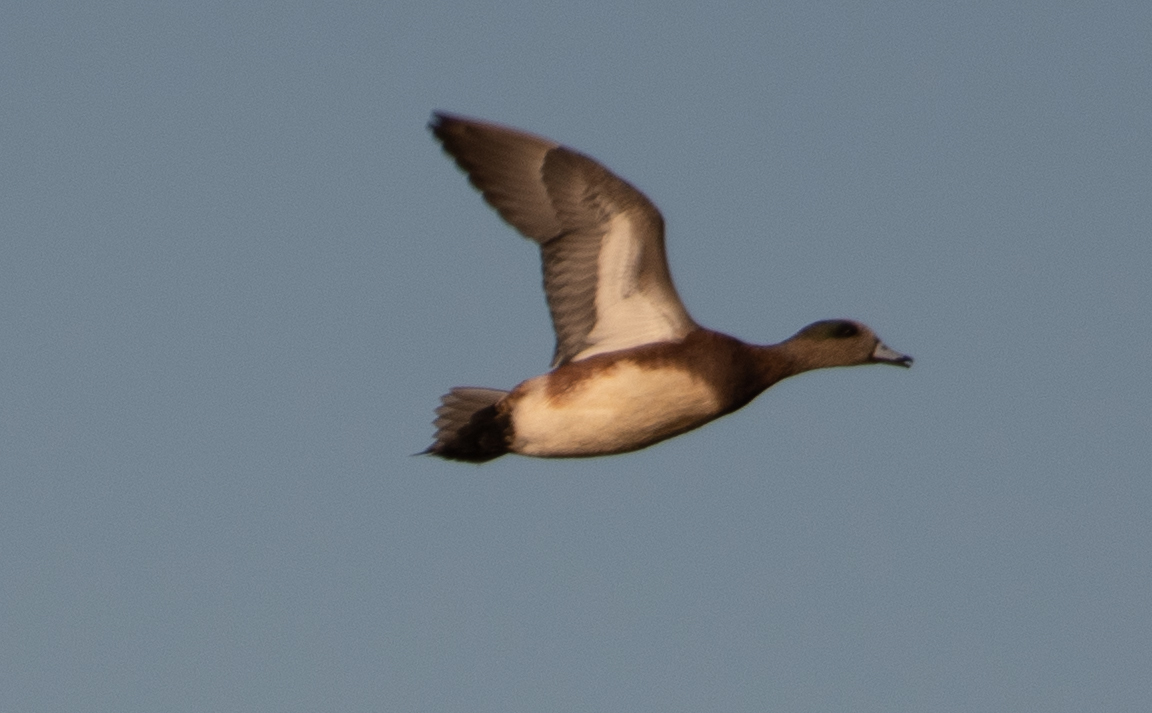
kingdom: Animalia
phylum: Chordata
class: Aves
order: Anseriformes
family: Anatidae
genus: Mareca
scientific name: Mareca americana
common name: American wigeon
